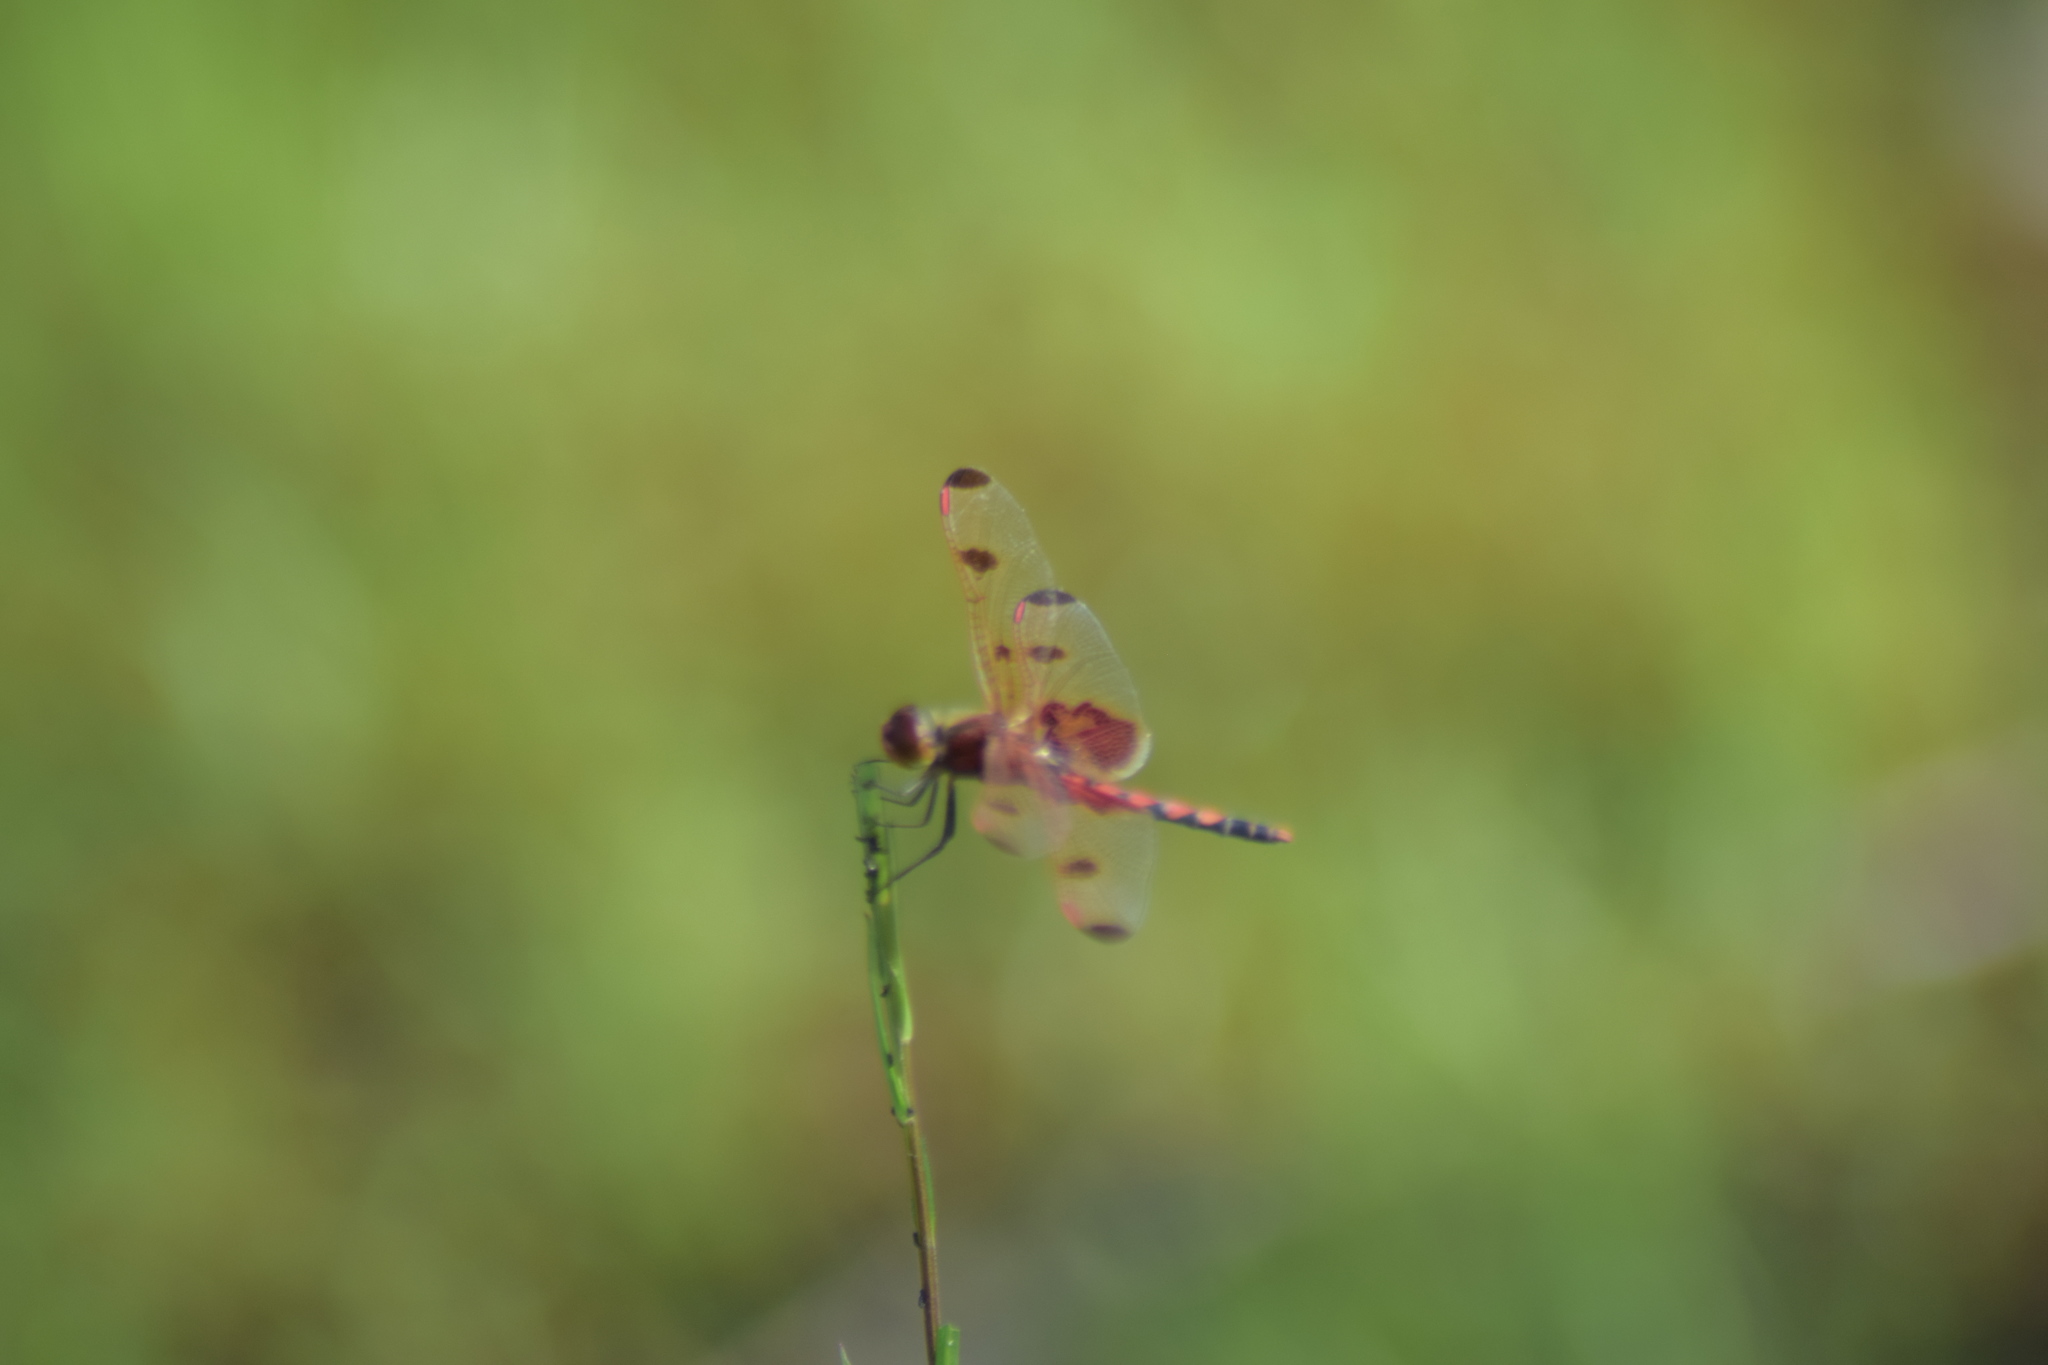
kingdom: Animalia
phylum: Arthropoda
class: Insecta
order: Odonata
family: Libellulidae
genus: Celithemis
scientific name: Celithemis elisa
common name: Calico pennant
